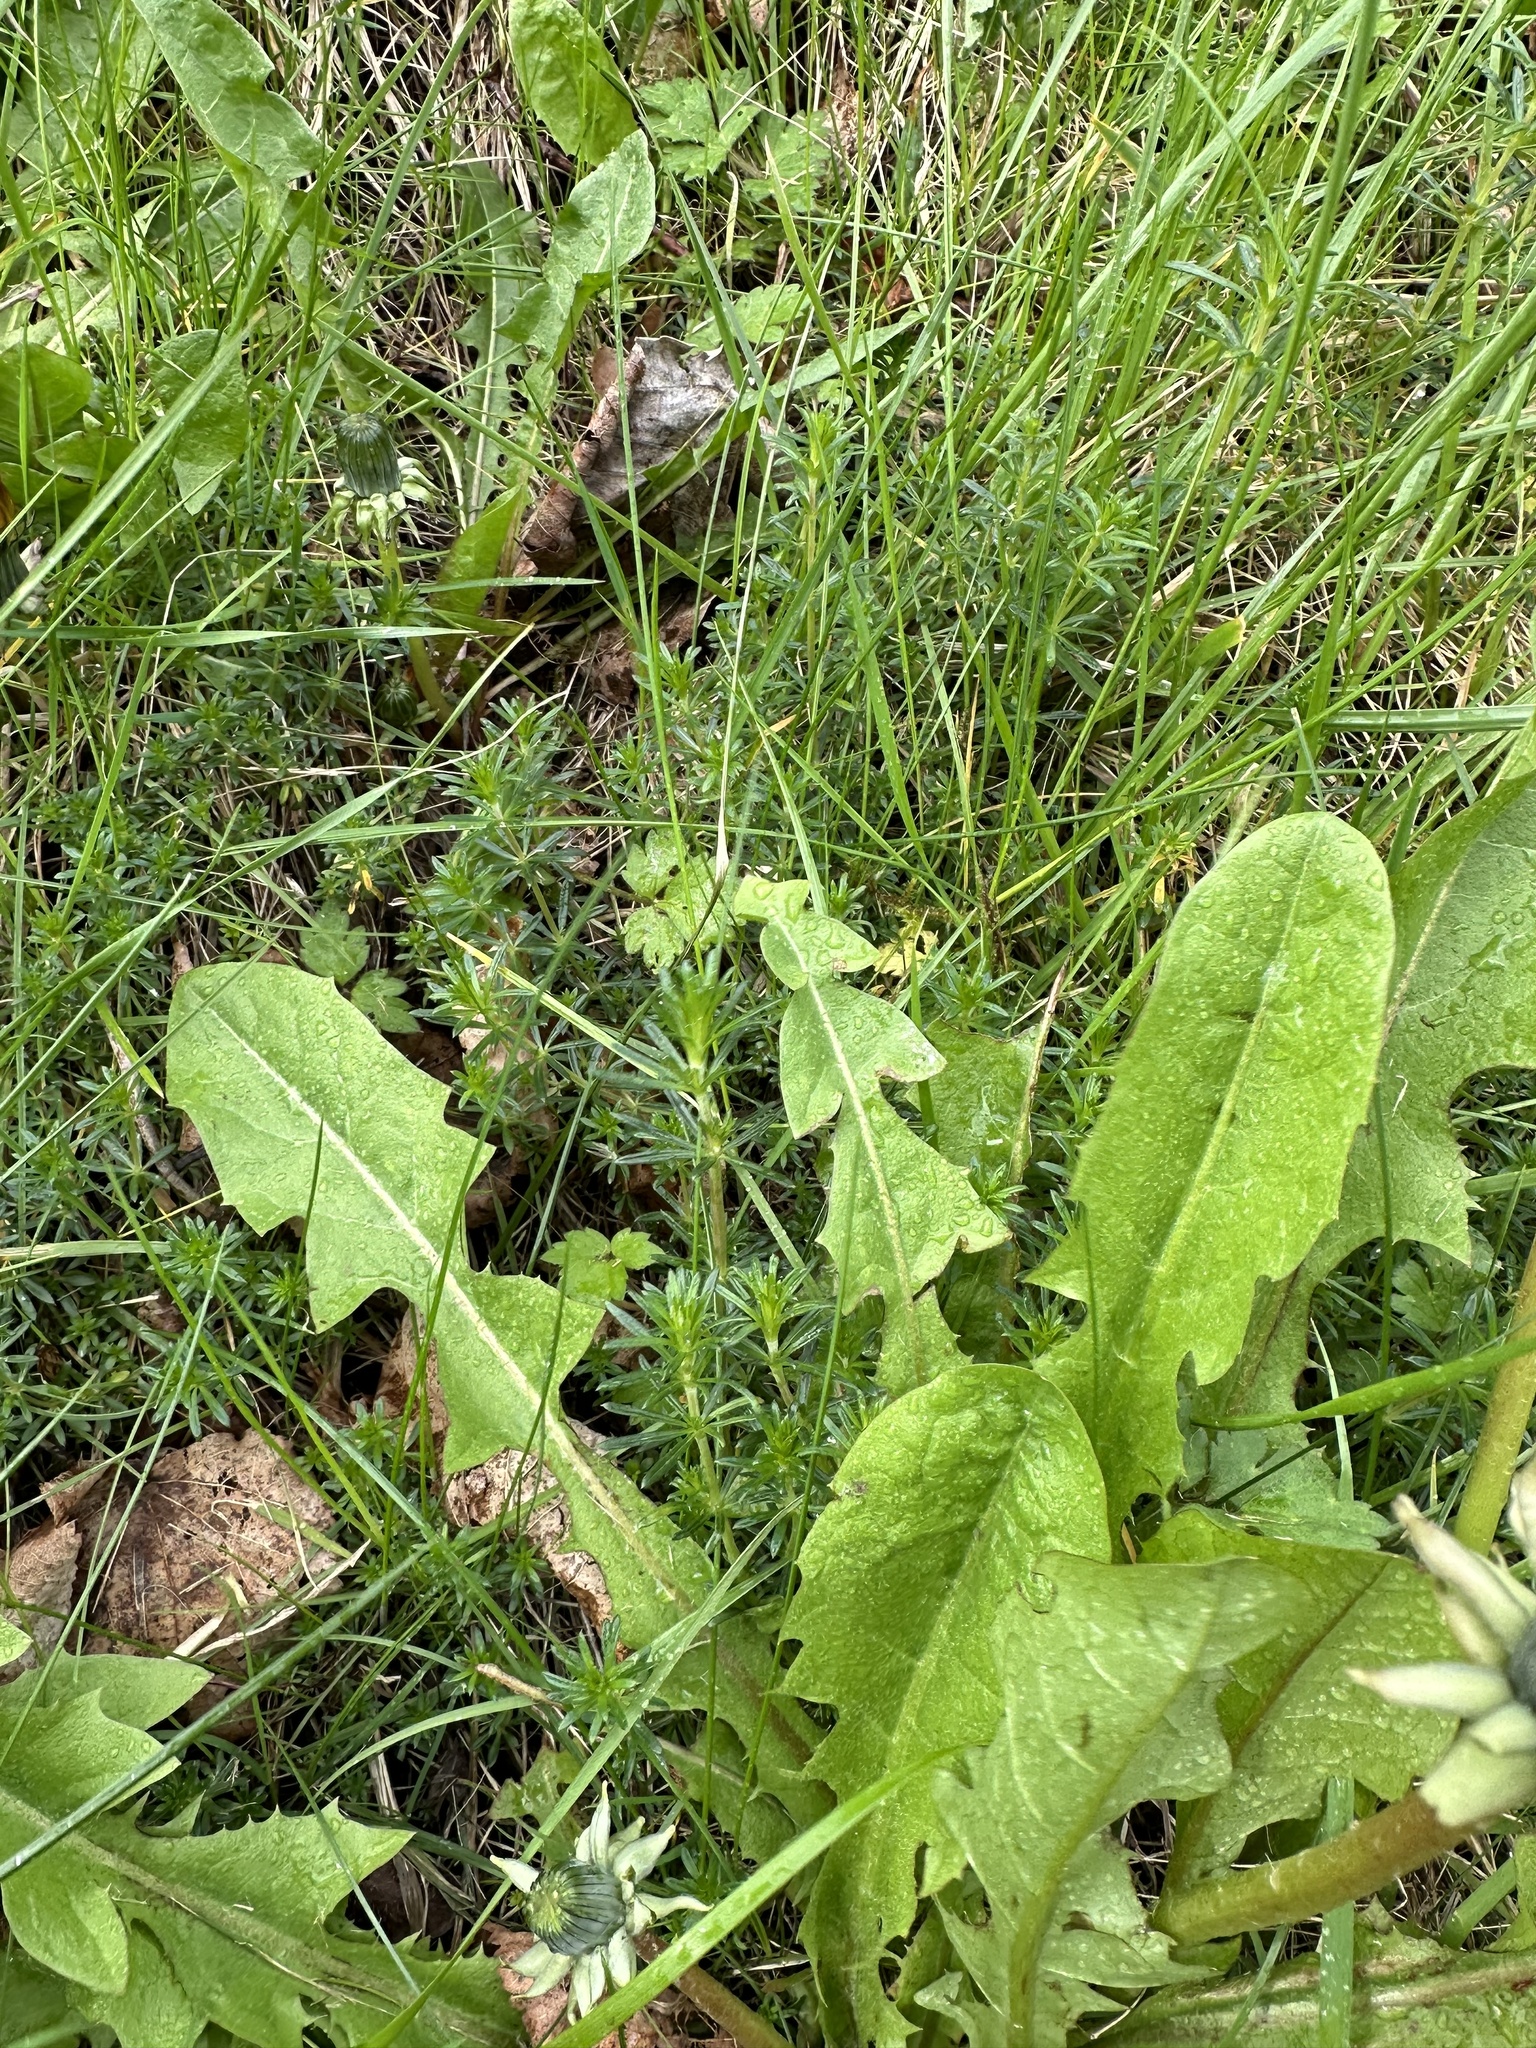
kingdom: Plantae
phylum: Tracheophyta
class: Magnoliopsida
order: Gentianales
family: Rubiaceae
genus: Galium
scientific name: Galium verum
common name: Lady's bedstraw
